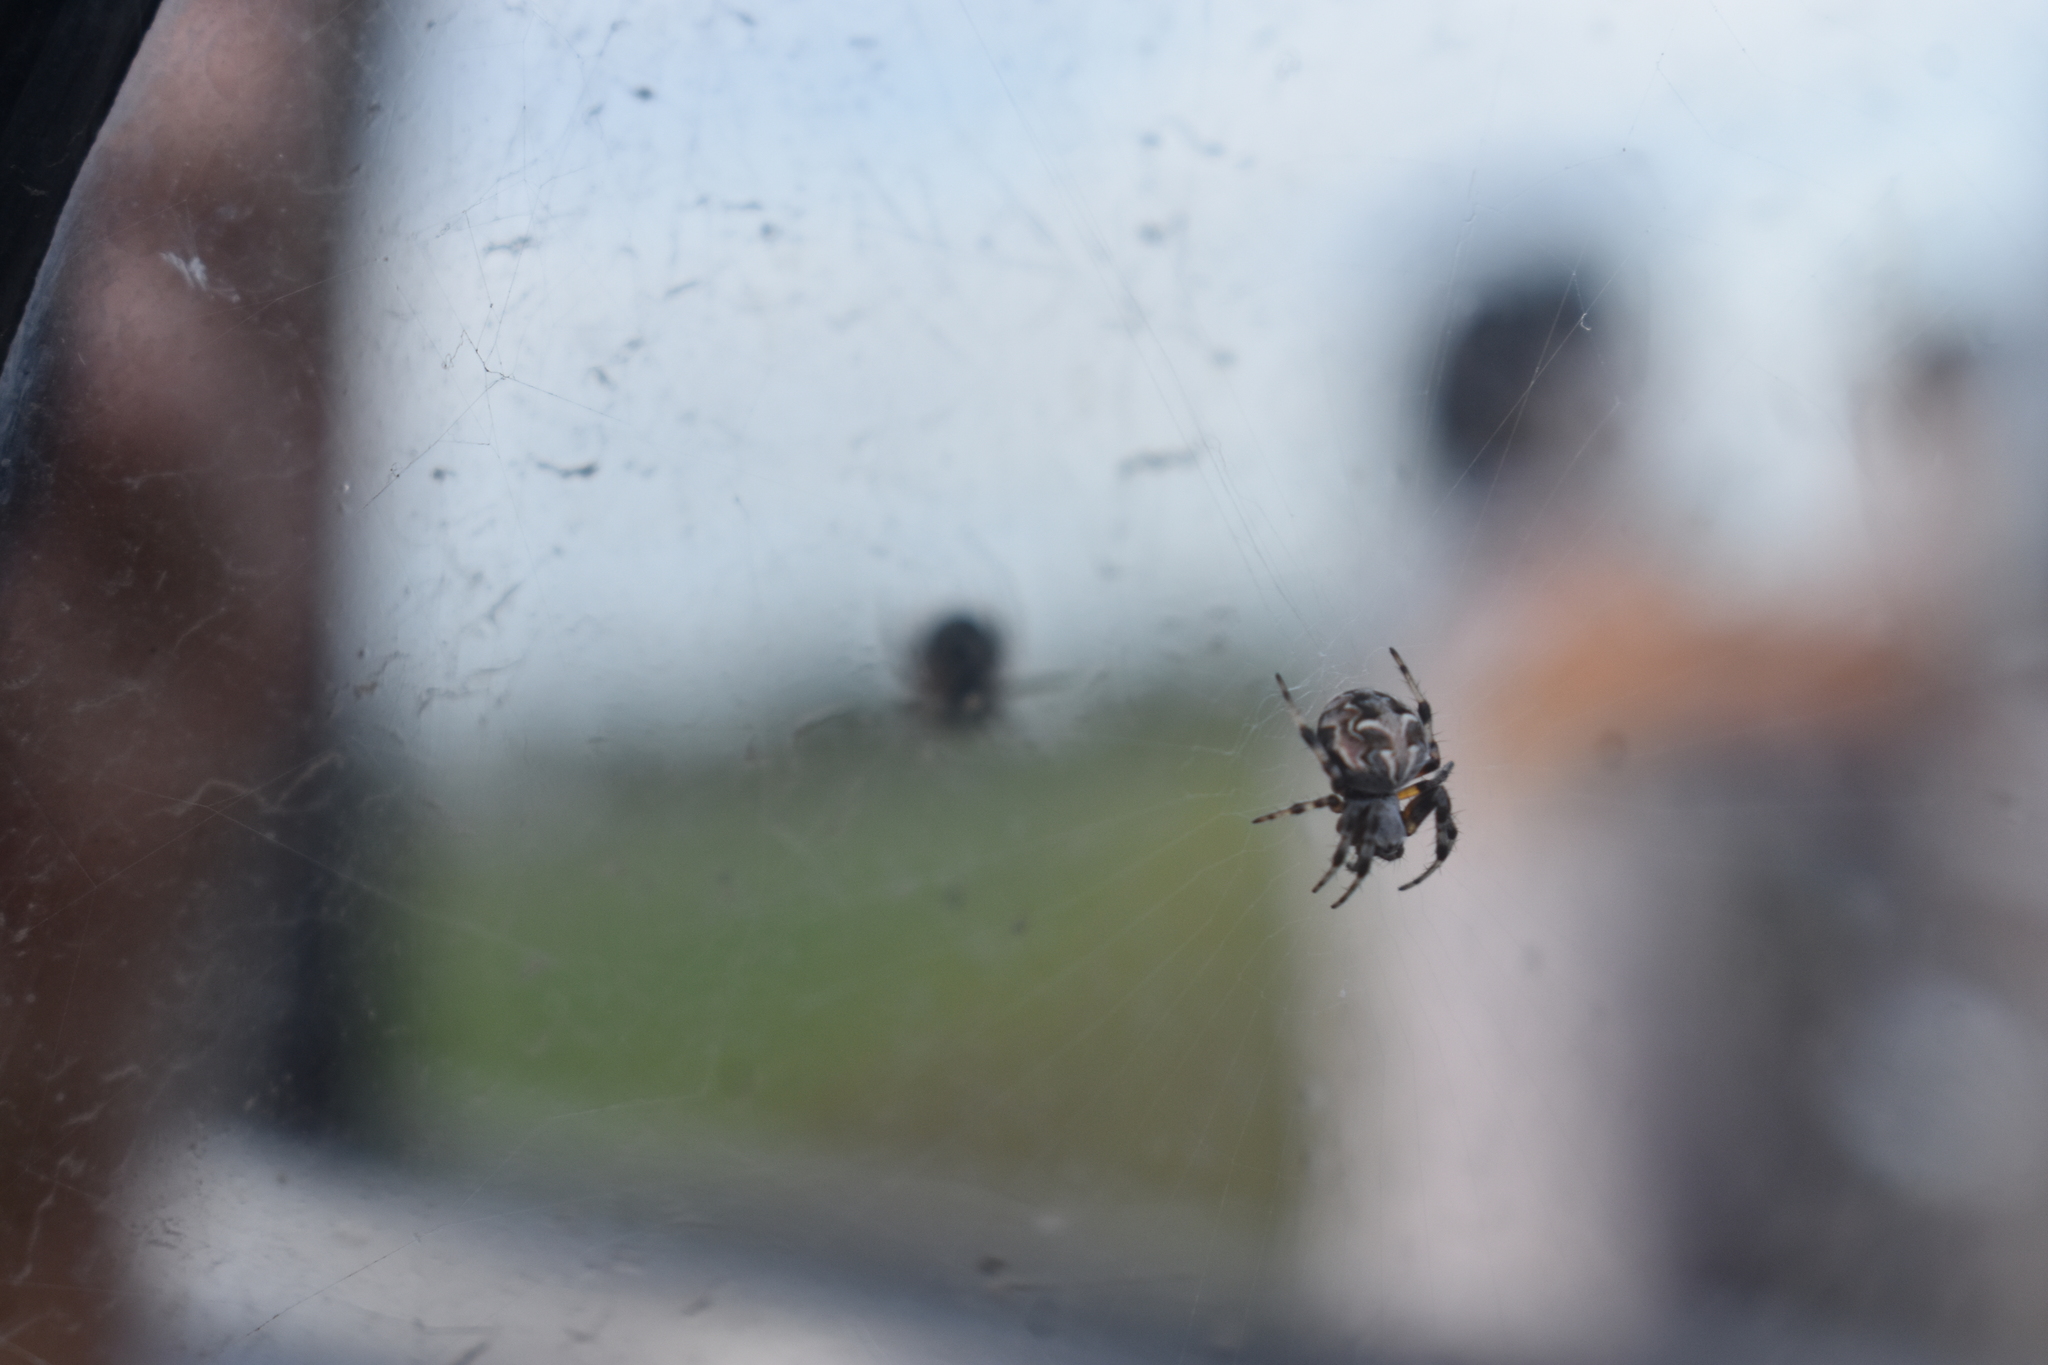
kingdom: Animalia
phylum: Arthropoda
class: Arachnida
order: Araneae
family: Araneidae
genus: Metepeira
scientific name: Metepeira
